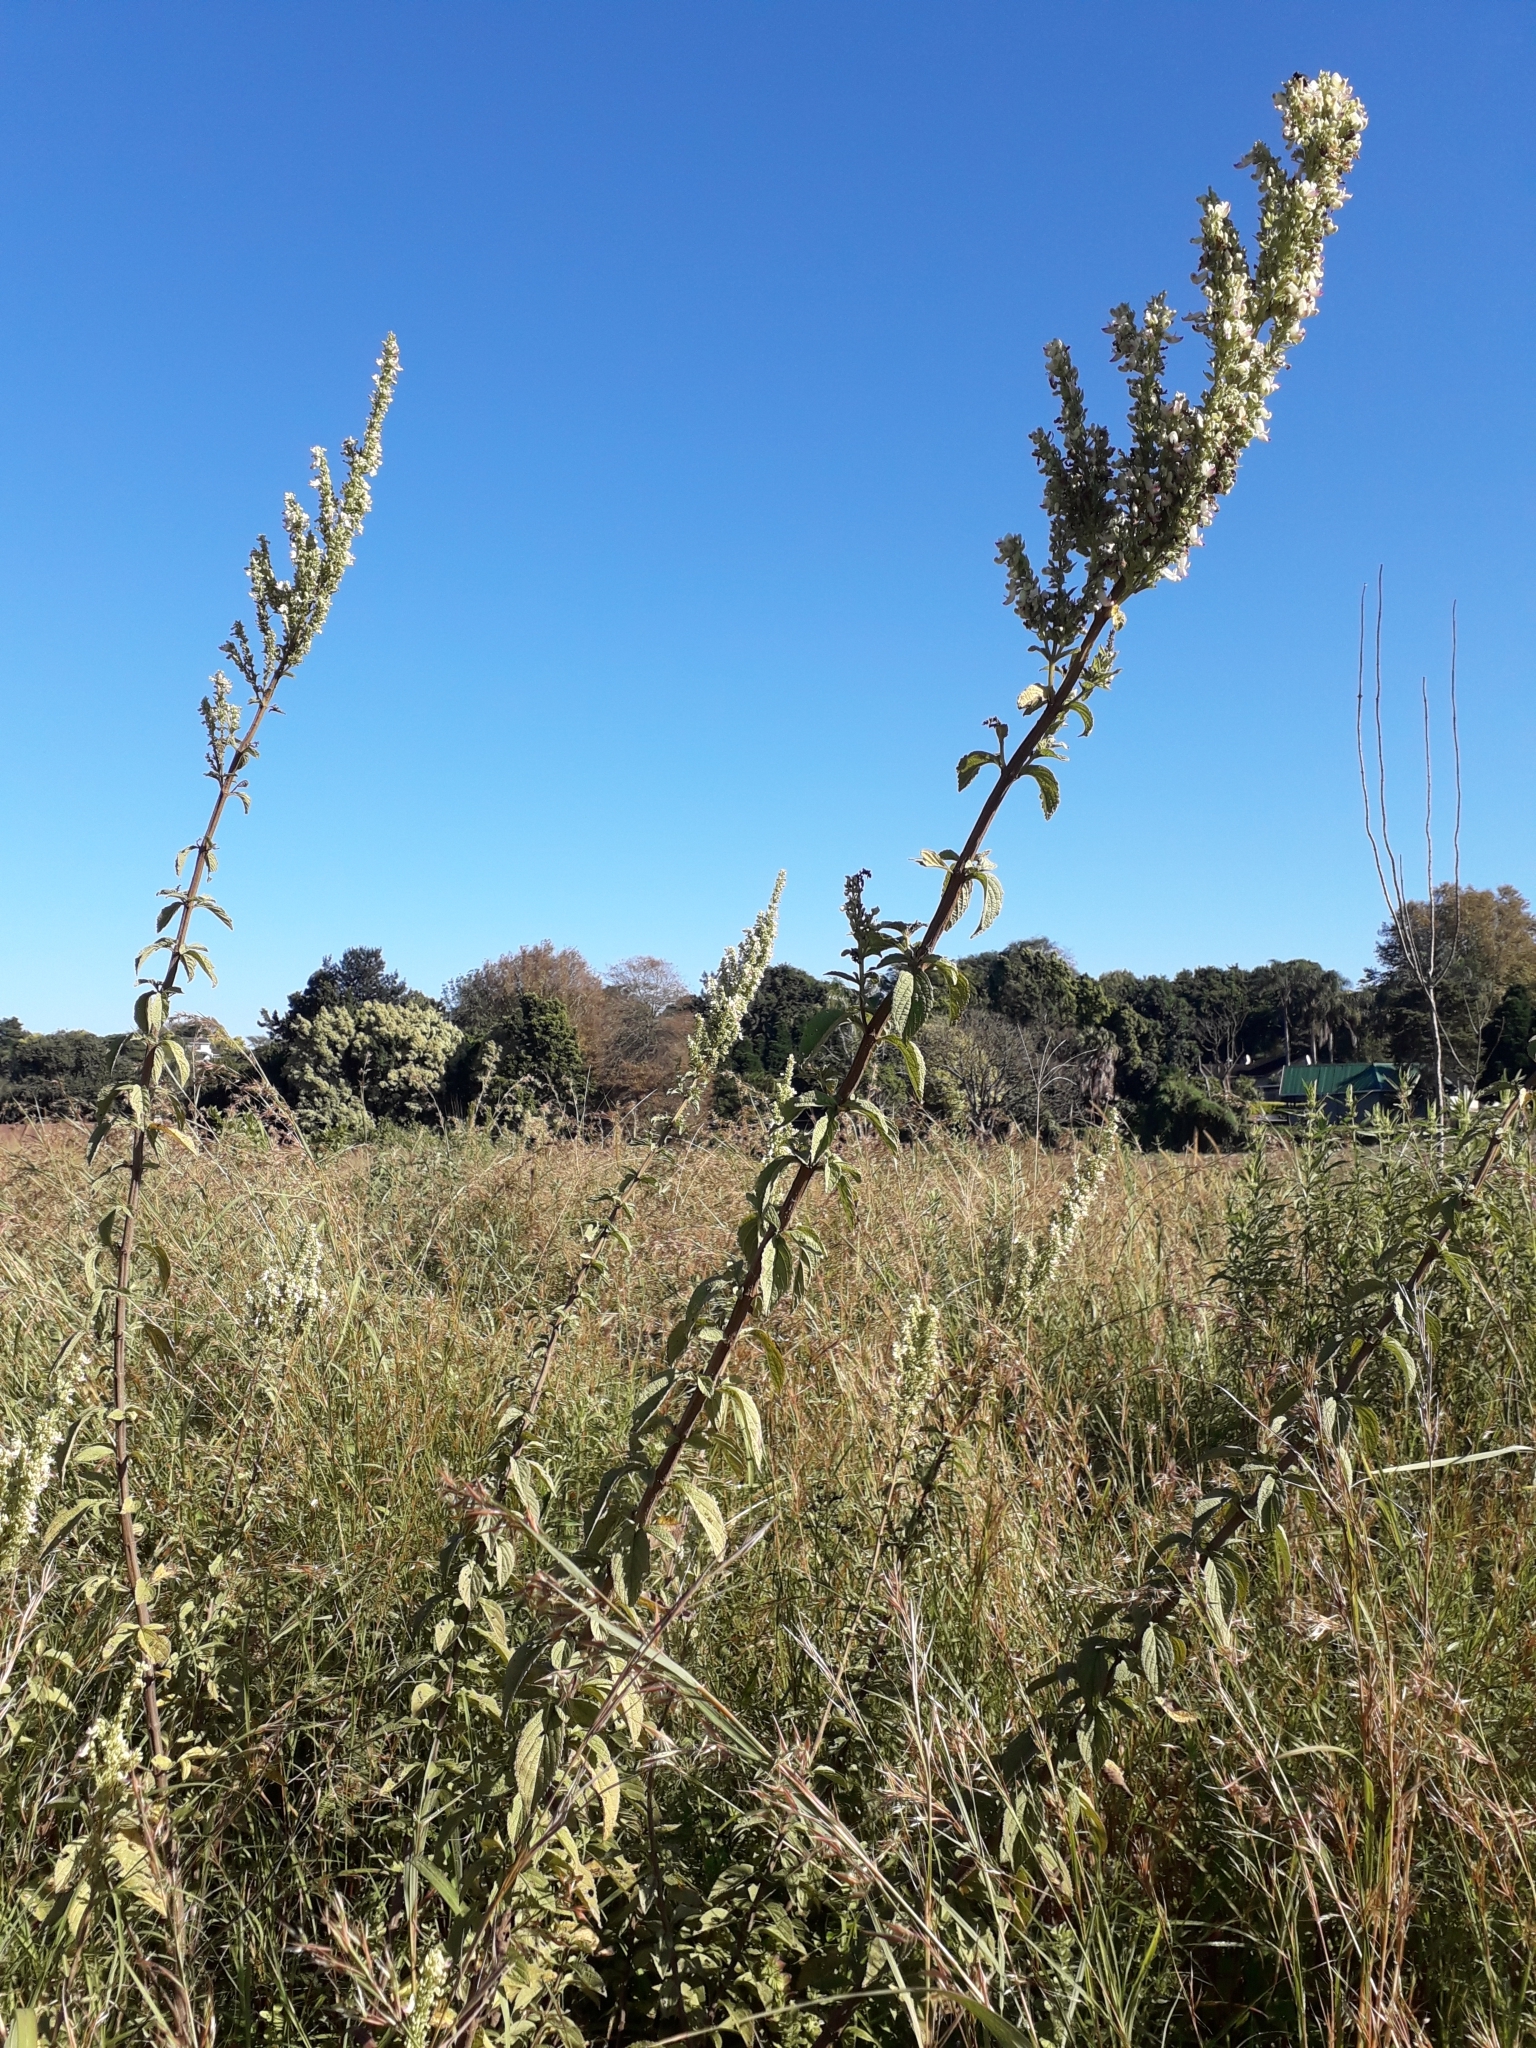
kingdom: Plantae
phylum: Tracheophyta
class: Magnoliopsida
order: Lamiales
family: Lamiaceae
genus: Coleus
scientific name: Coleus calycinus
